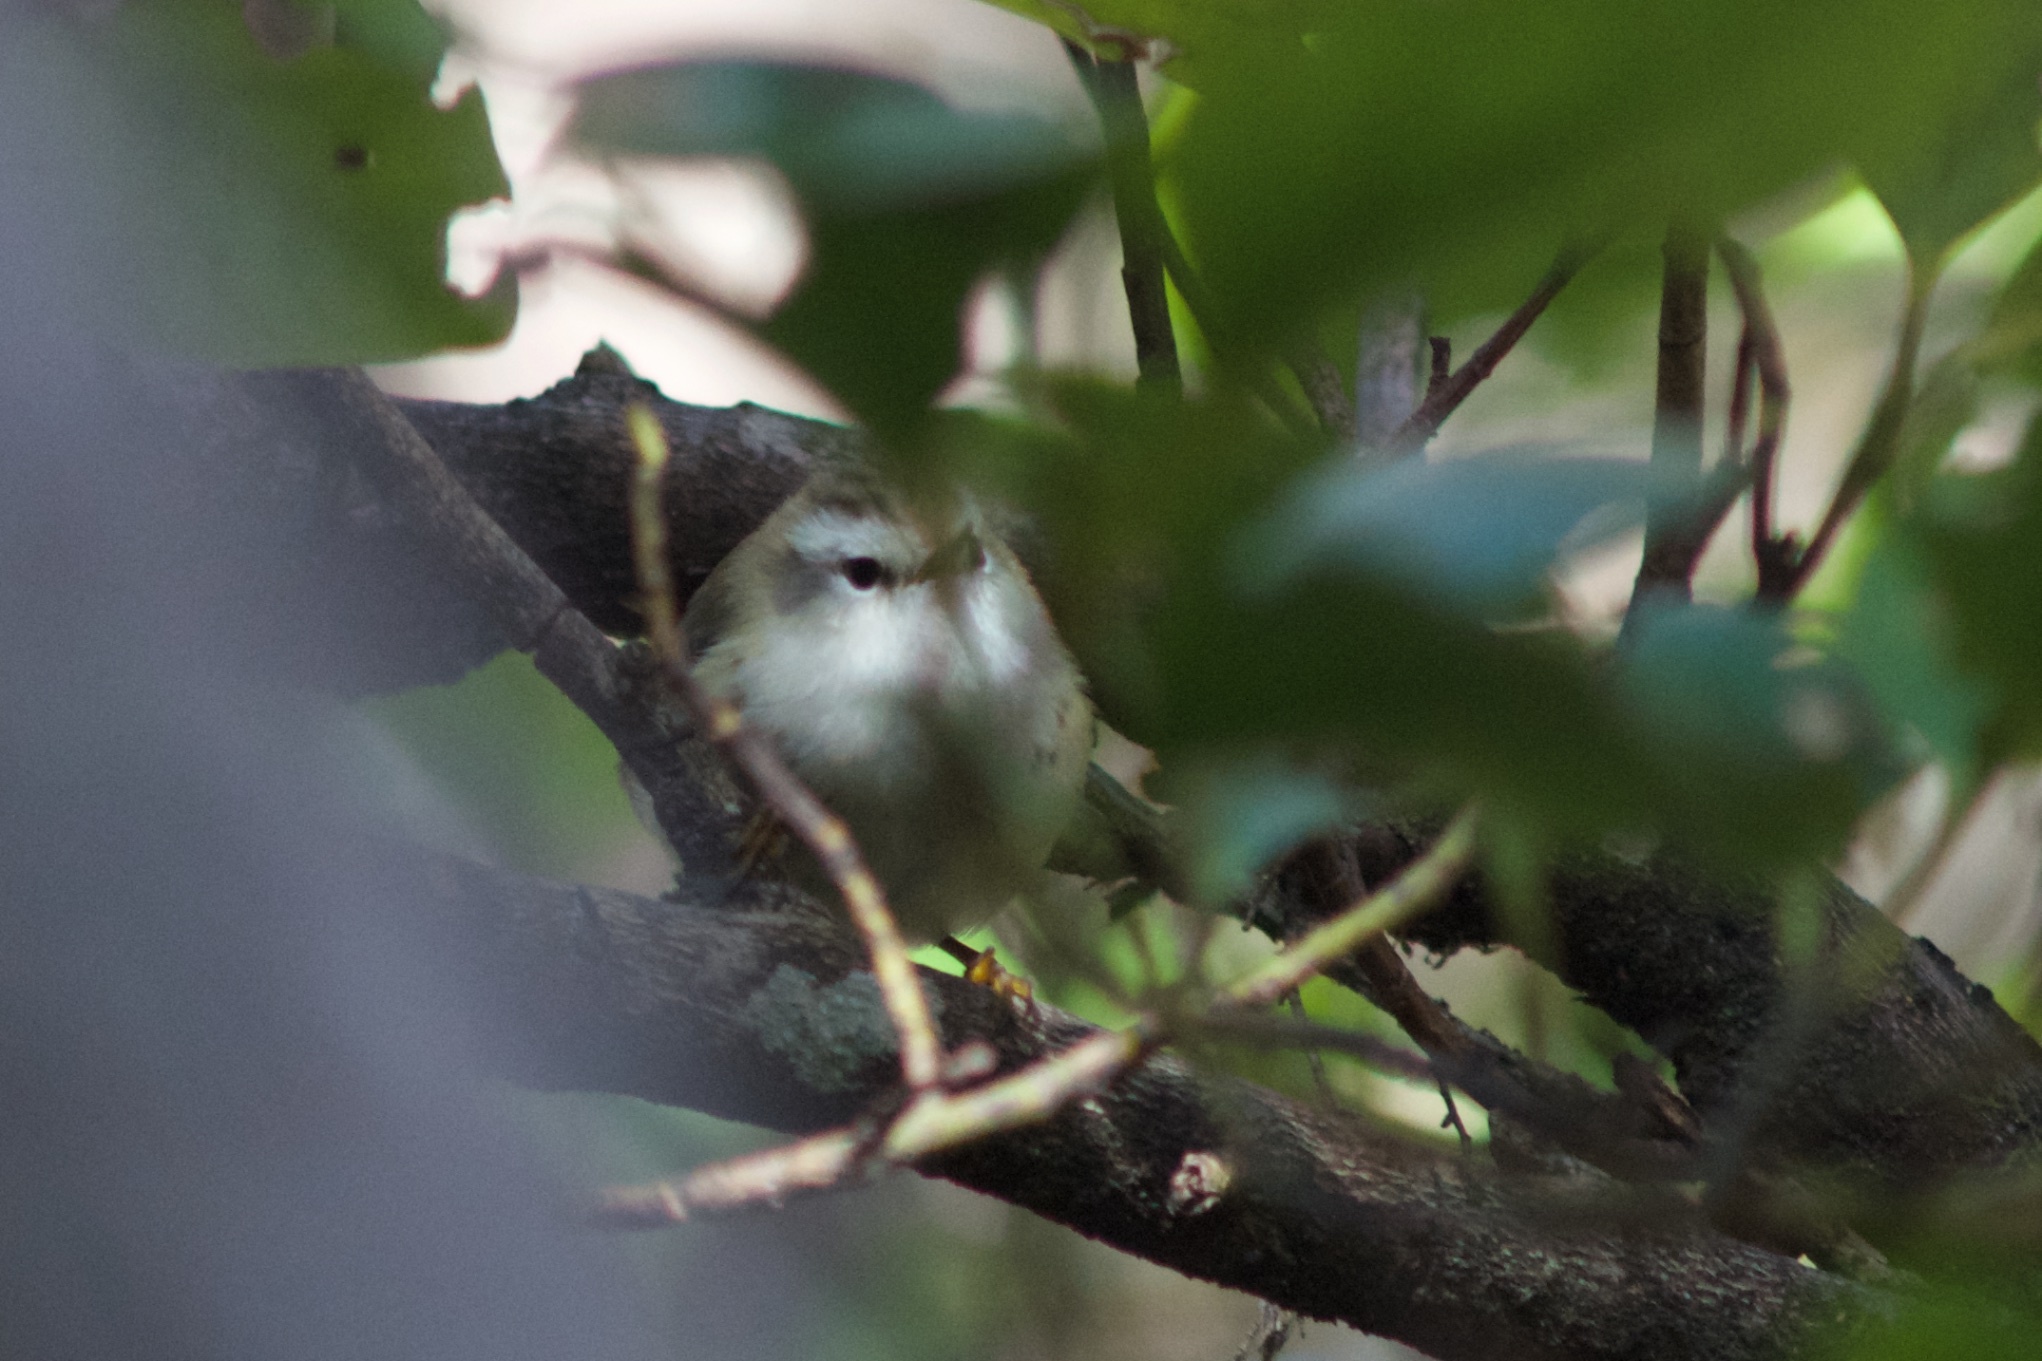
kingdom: Animalia
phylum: Chordata
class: Aves
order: Passeriformes
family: Acanthisittidae
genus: Acanthisitta
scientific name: Acanthisitta chloris
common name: Rifleman
